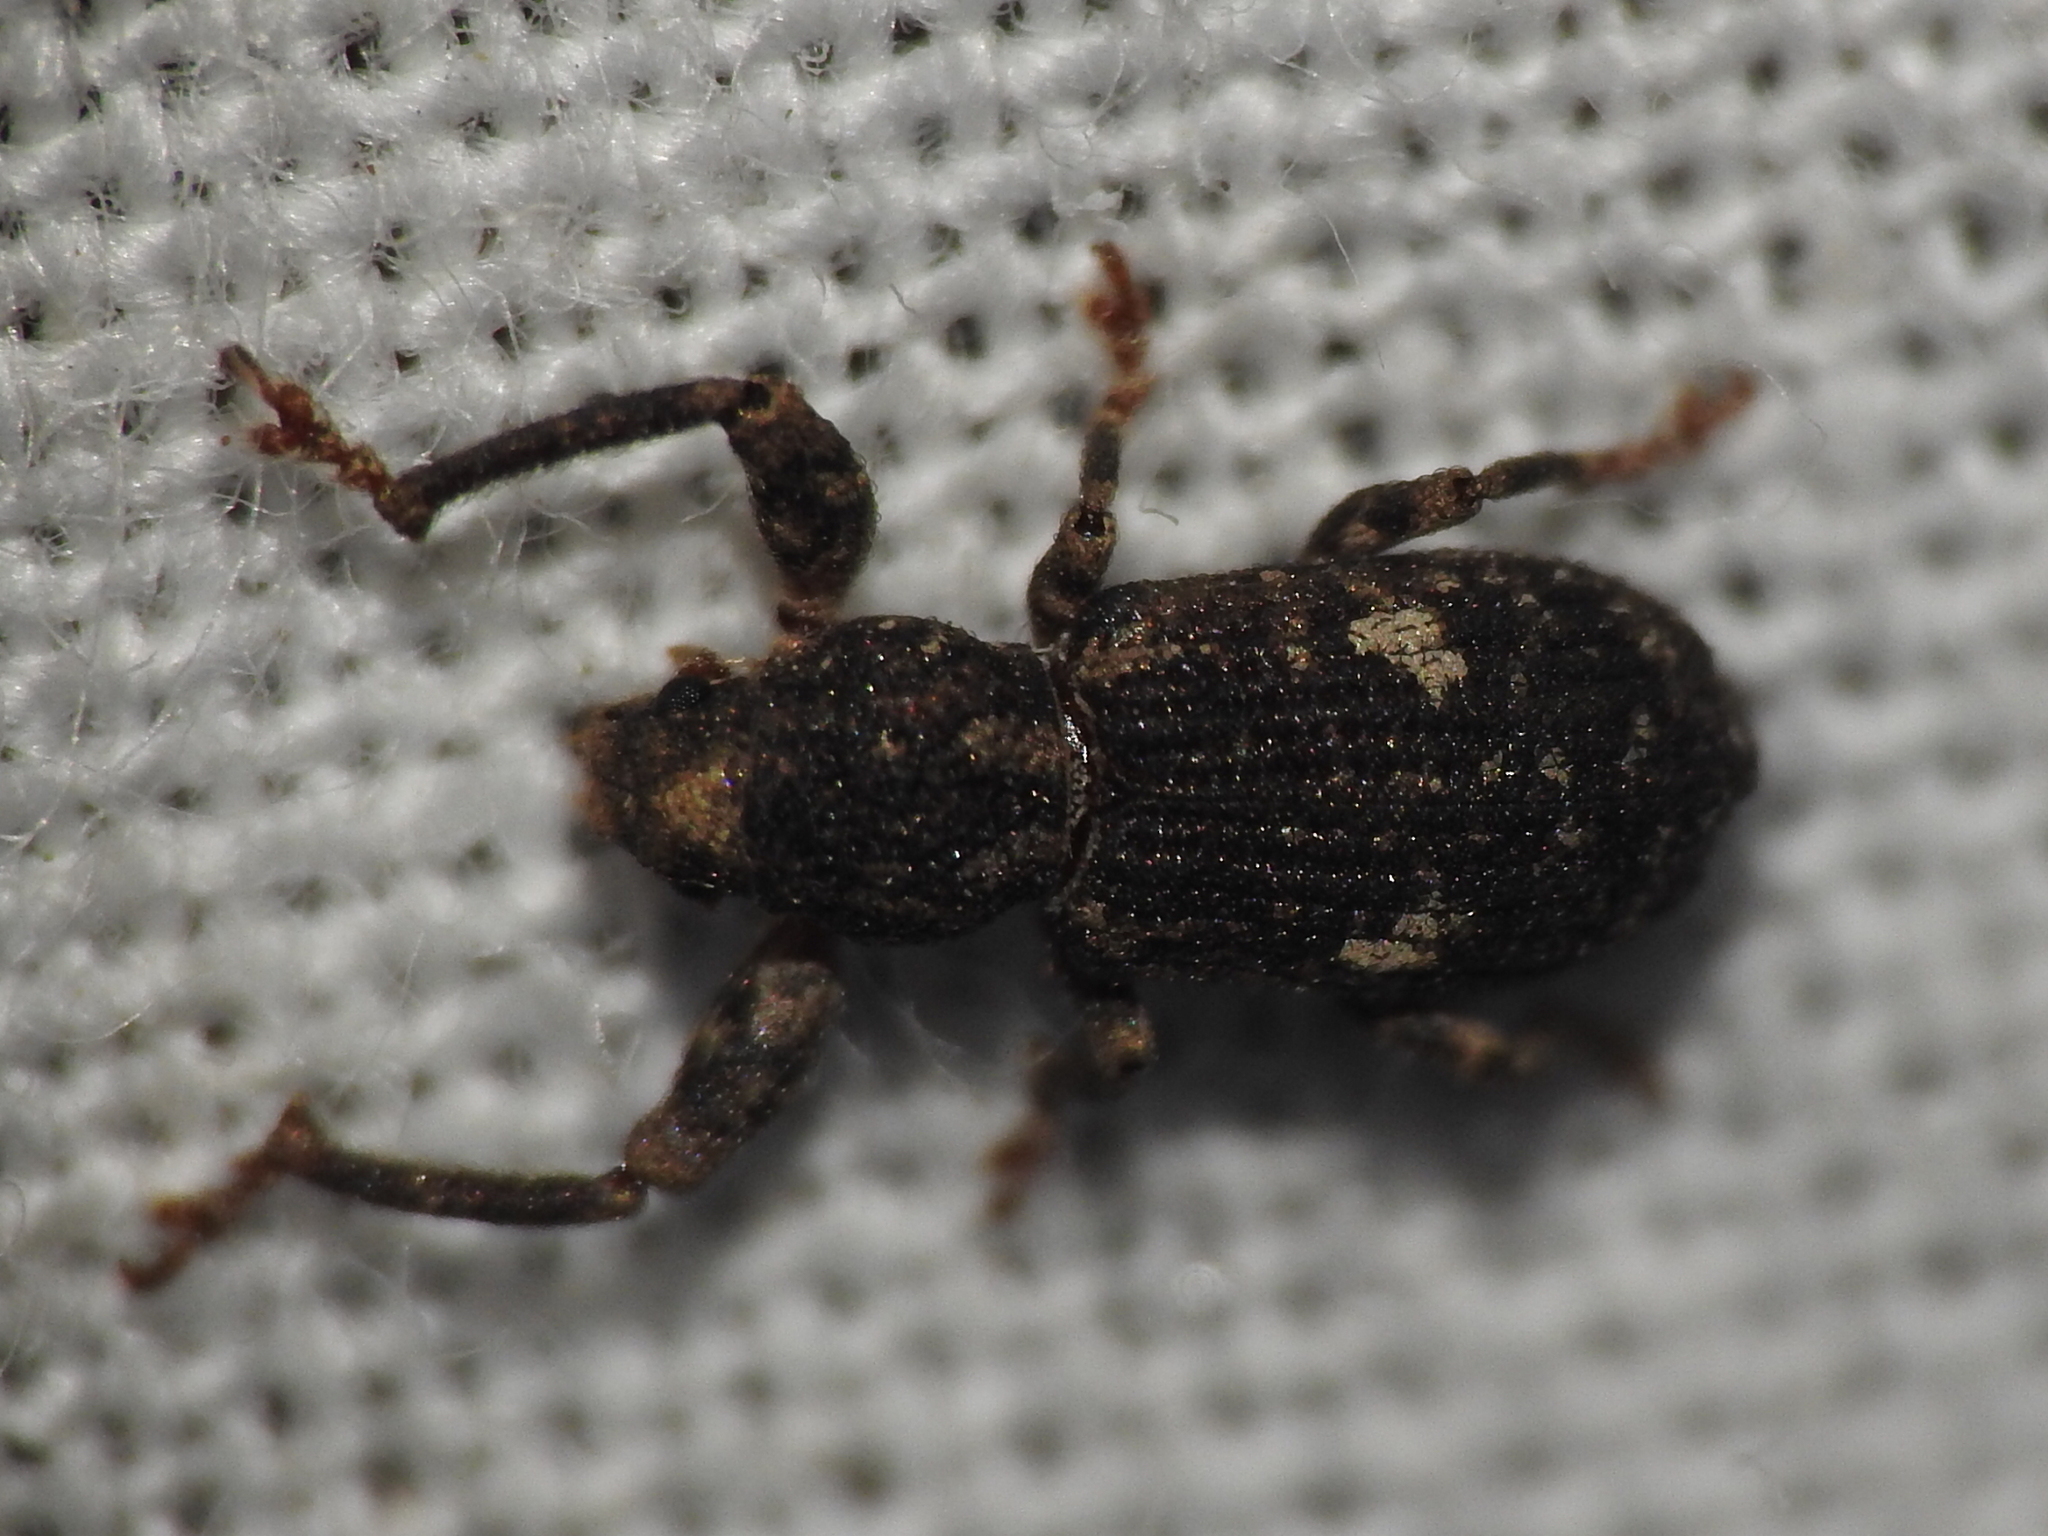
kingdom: Animalia
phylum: Arthropoda
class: Insecta
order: Coleoptera
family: Curculionidae
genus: Pandeleteius
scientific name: Pandeleteius hilaris
